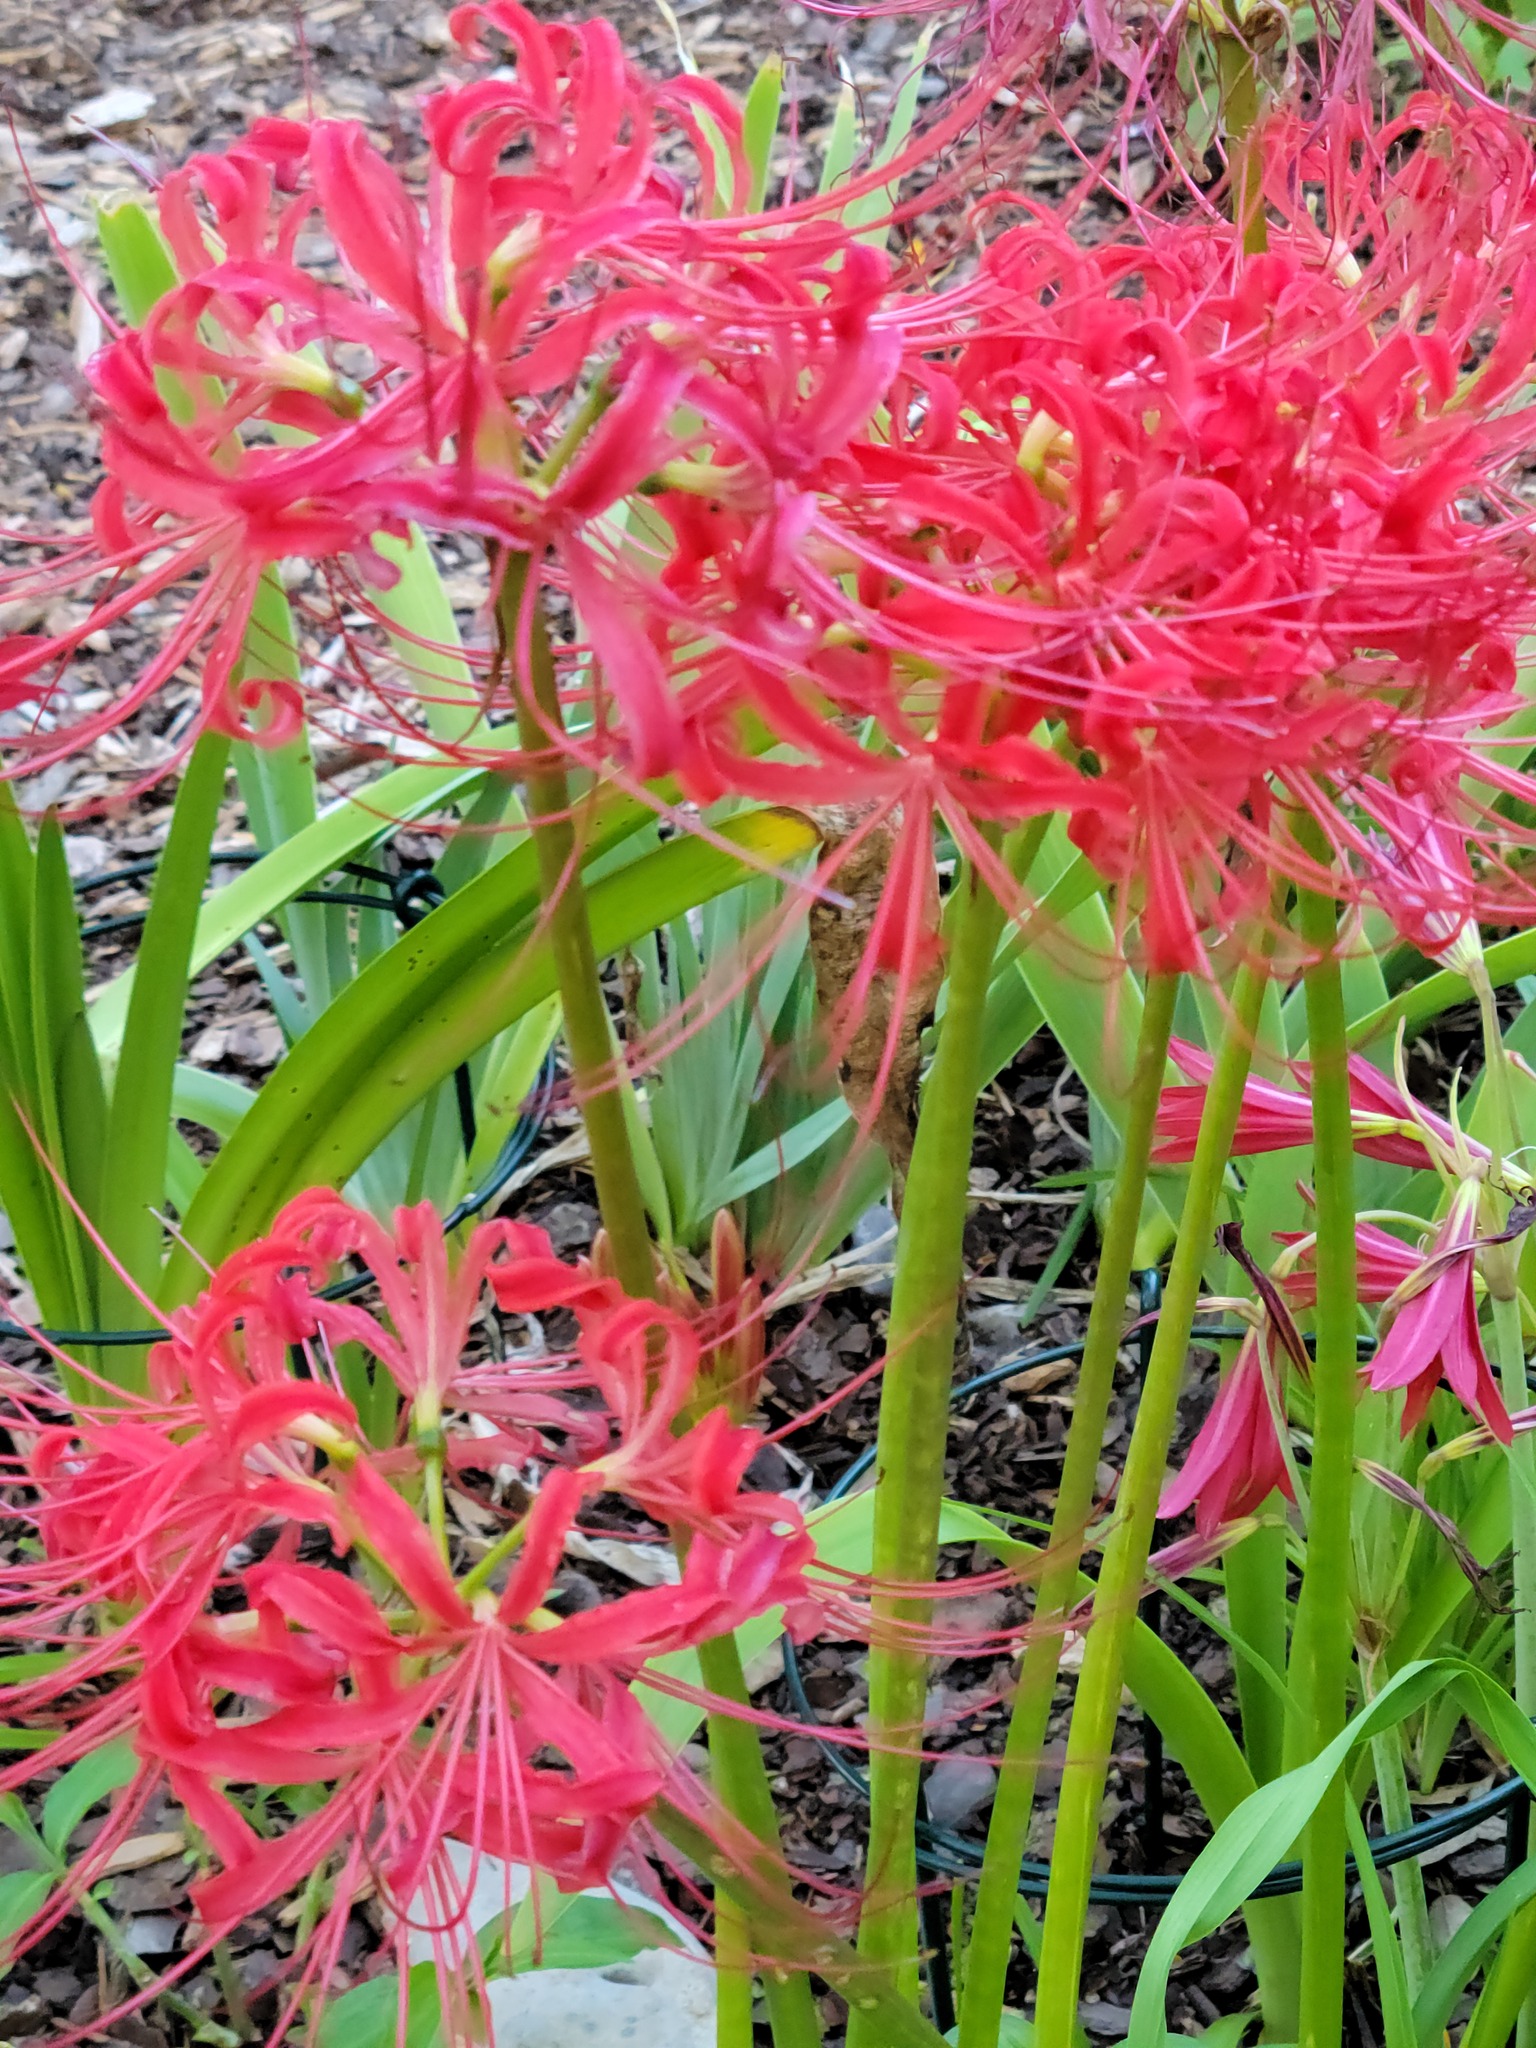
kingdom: Plantae
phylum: Tracheophyta
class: Liliopsida
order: Asparagales
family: Amaryllidaceae
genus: Lycoris
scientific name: Lycoris radiata
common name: Red spider lily
